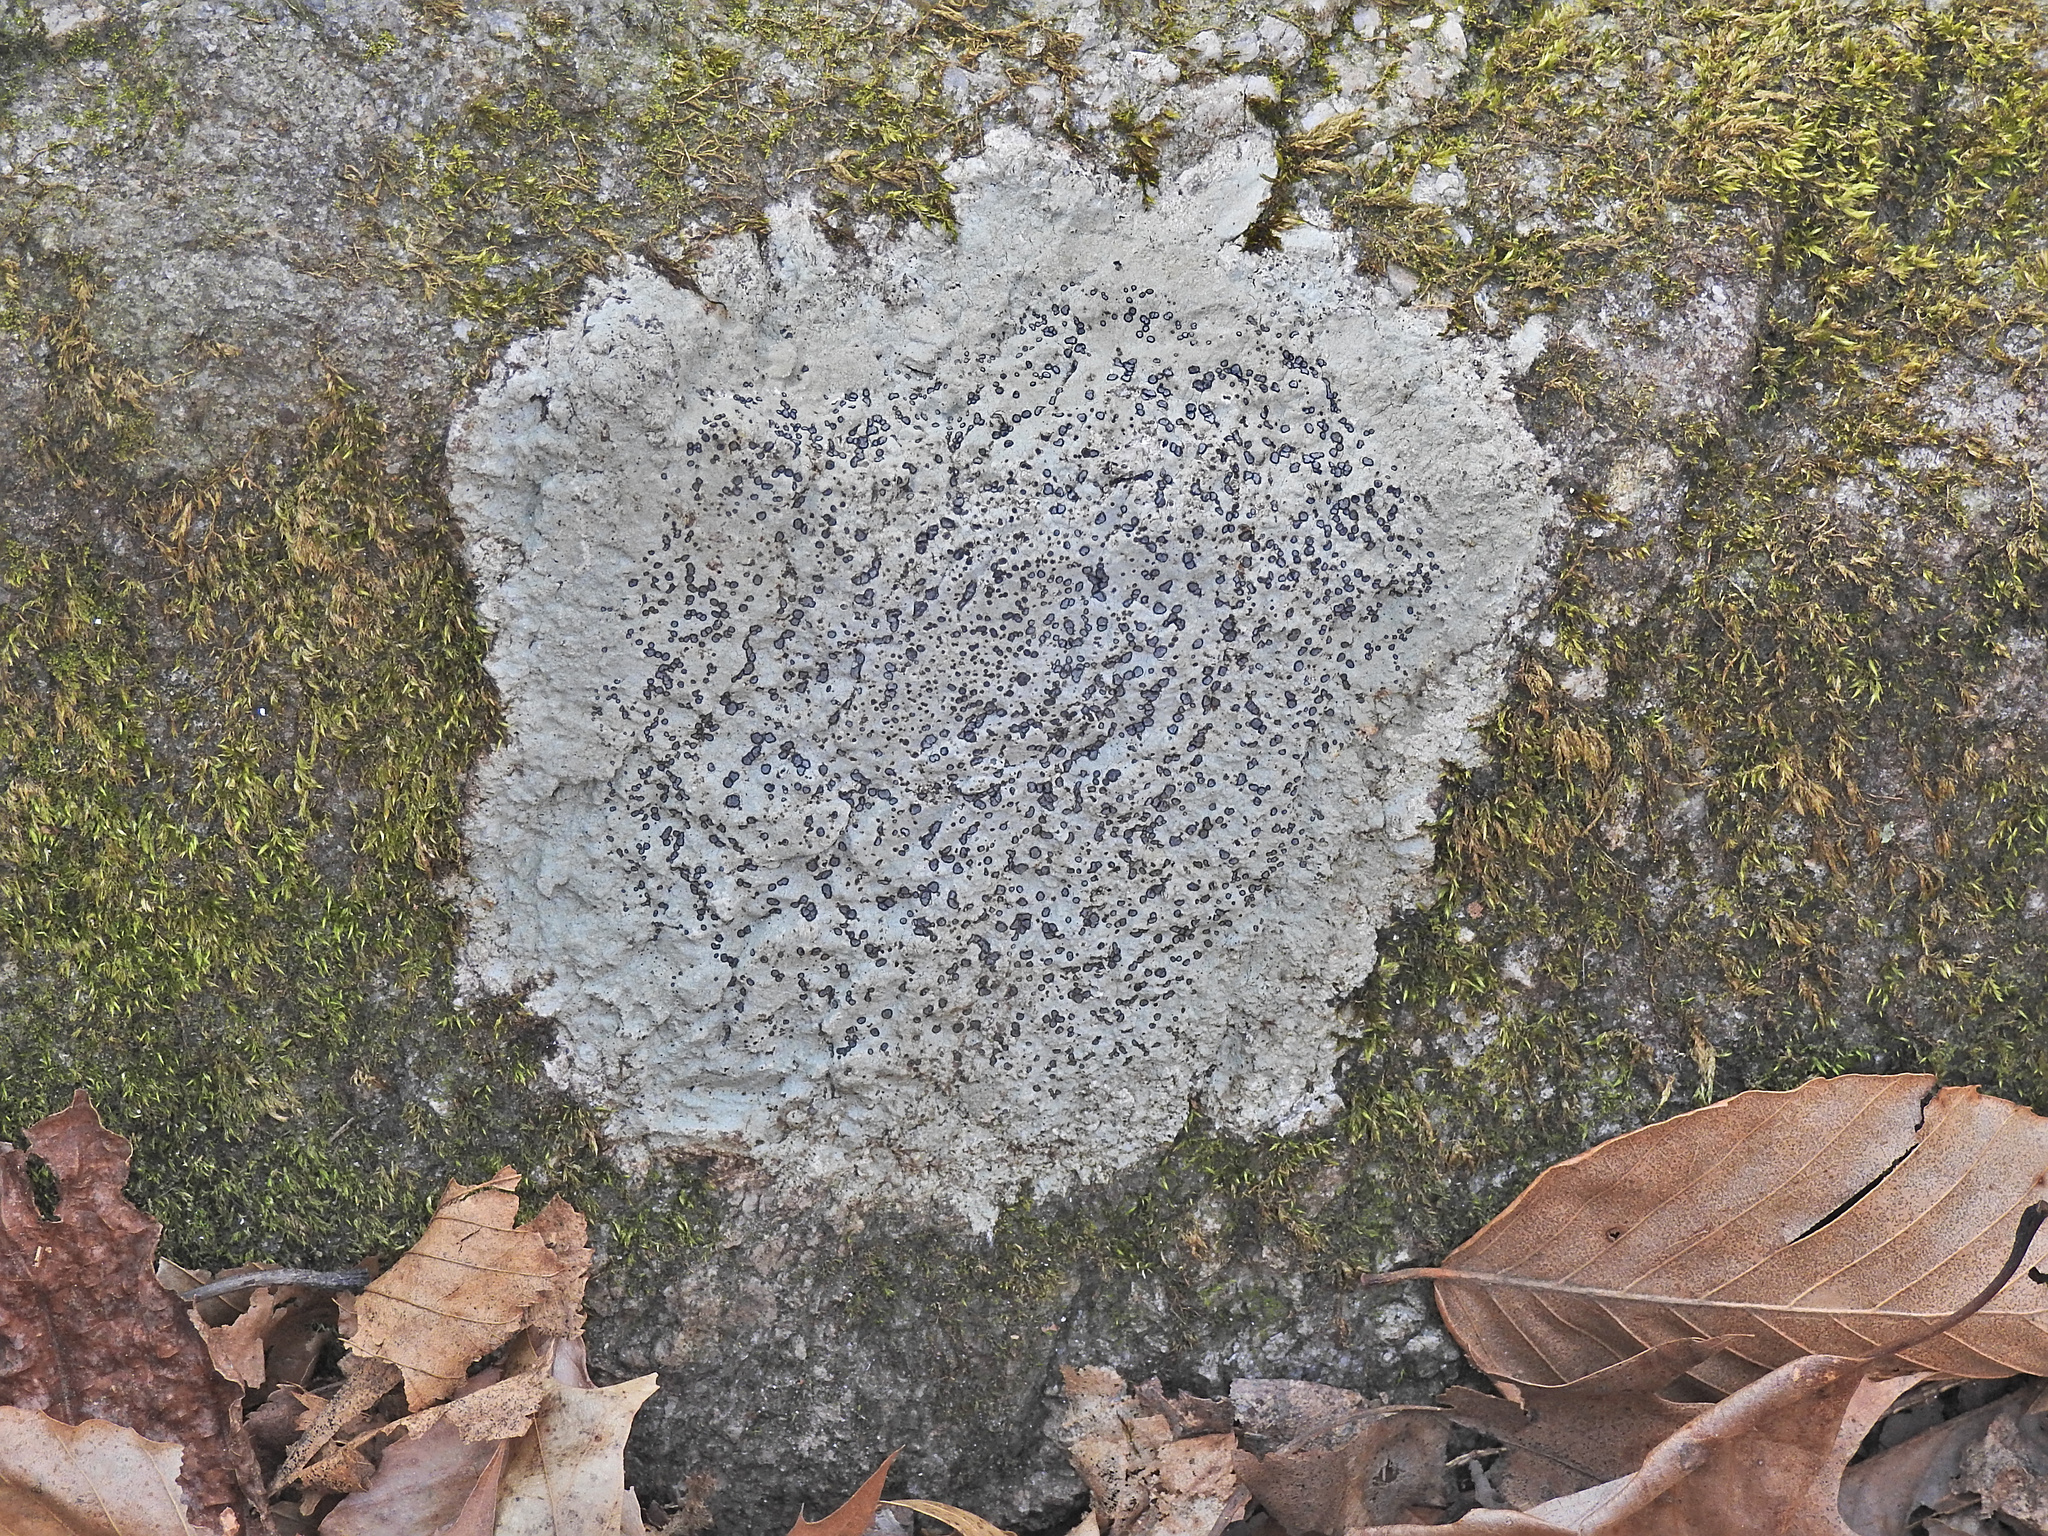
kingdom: Fungi
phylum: Ascomycota
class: Lecanoromycetes
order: Lecideales
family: Lecideaceae
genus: Porpidia
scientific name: Porpidia albocaerulescens
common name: Smokey-eyed boulder lichen
